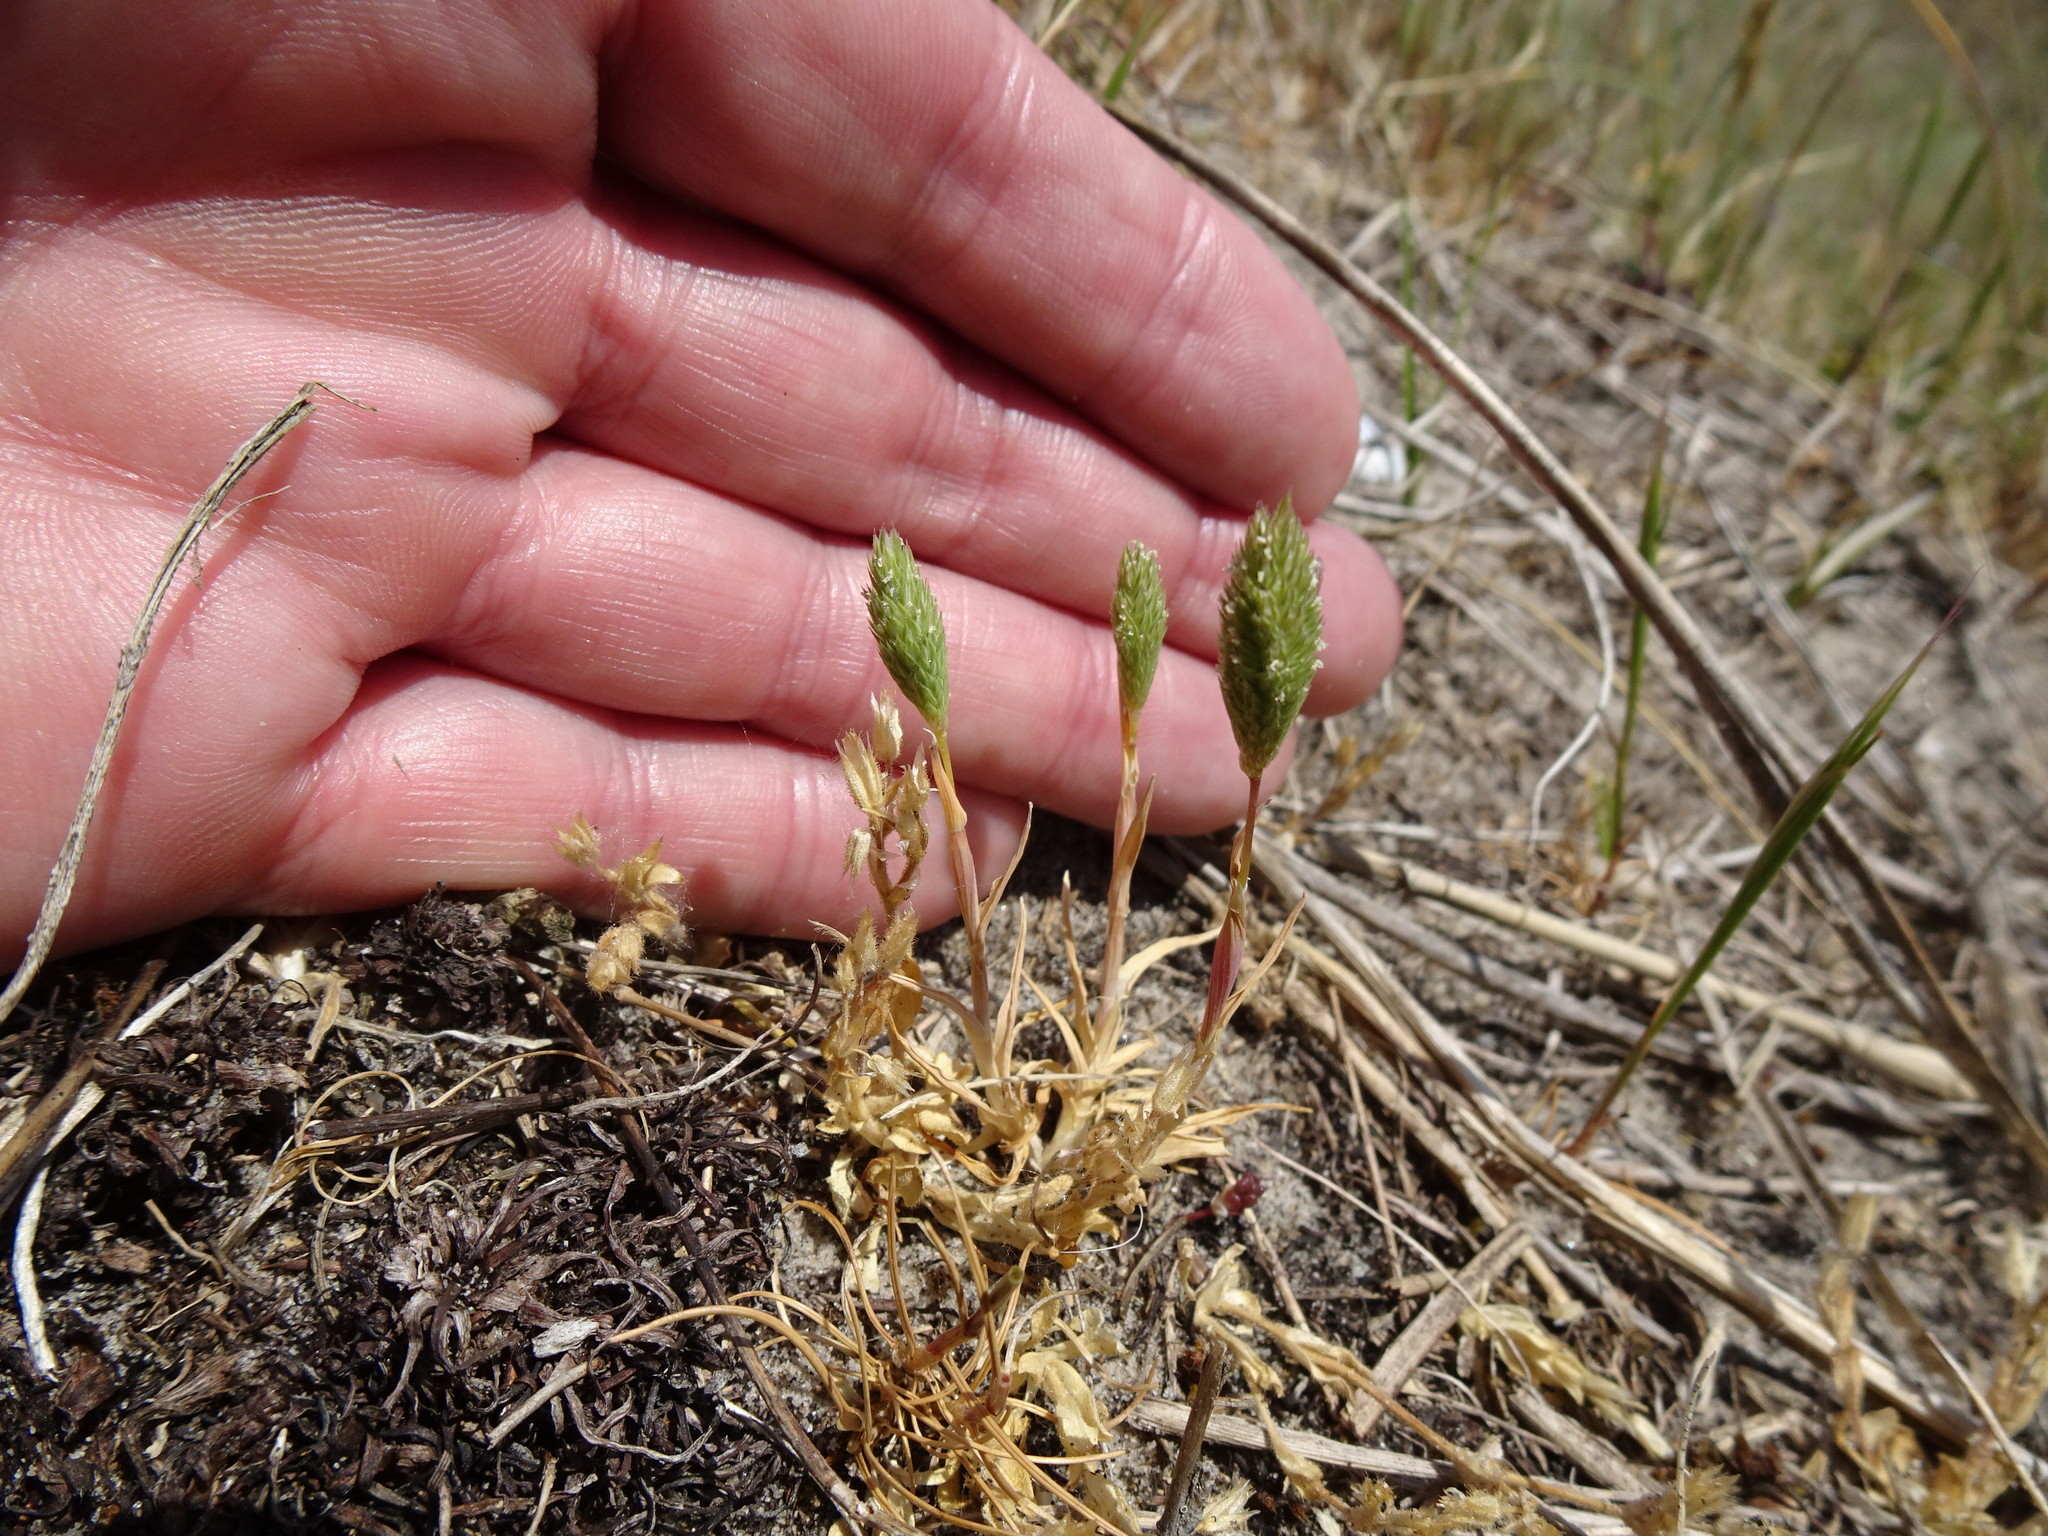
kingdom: Plantae
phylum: Tracheophyta
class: Liliopsida
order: Poales
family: Poaceae
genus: Phleum
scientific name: Phleum arenarium
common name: Sand cat's-tail
